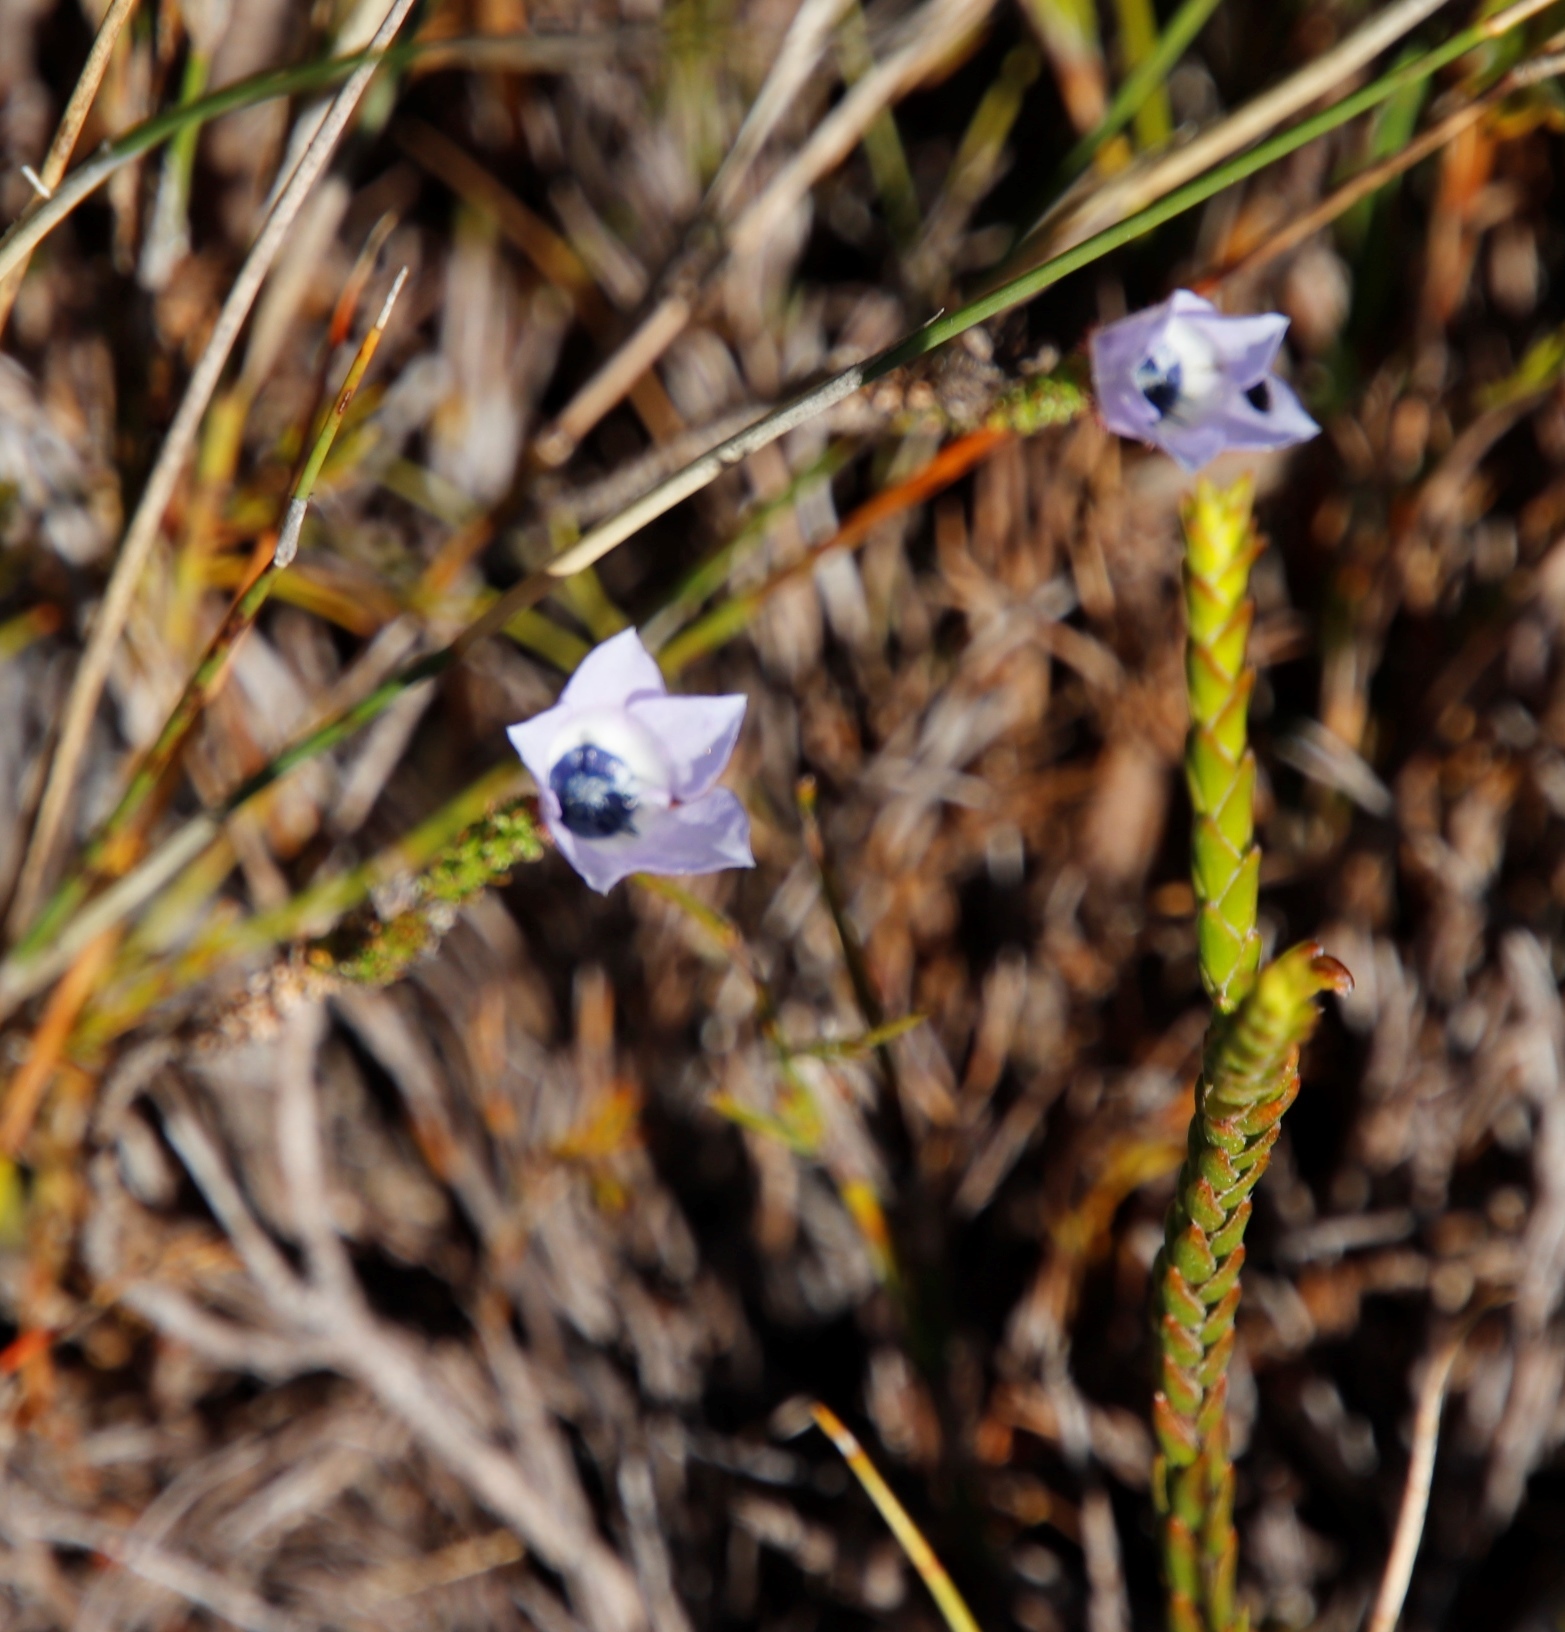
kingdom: Plantae
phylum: Tracheophyta
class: Magnoliopsida
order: Asterales
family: Campanulaceae
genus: Roella
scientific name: Roella triflora
